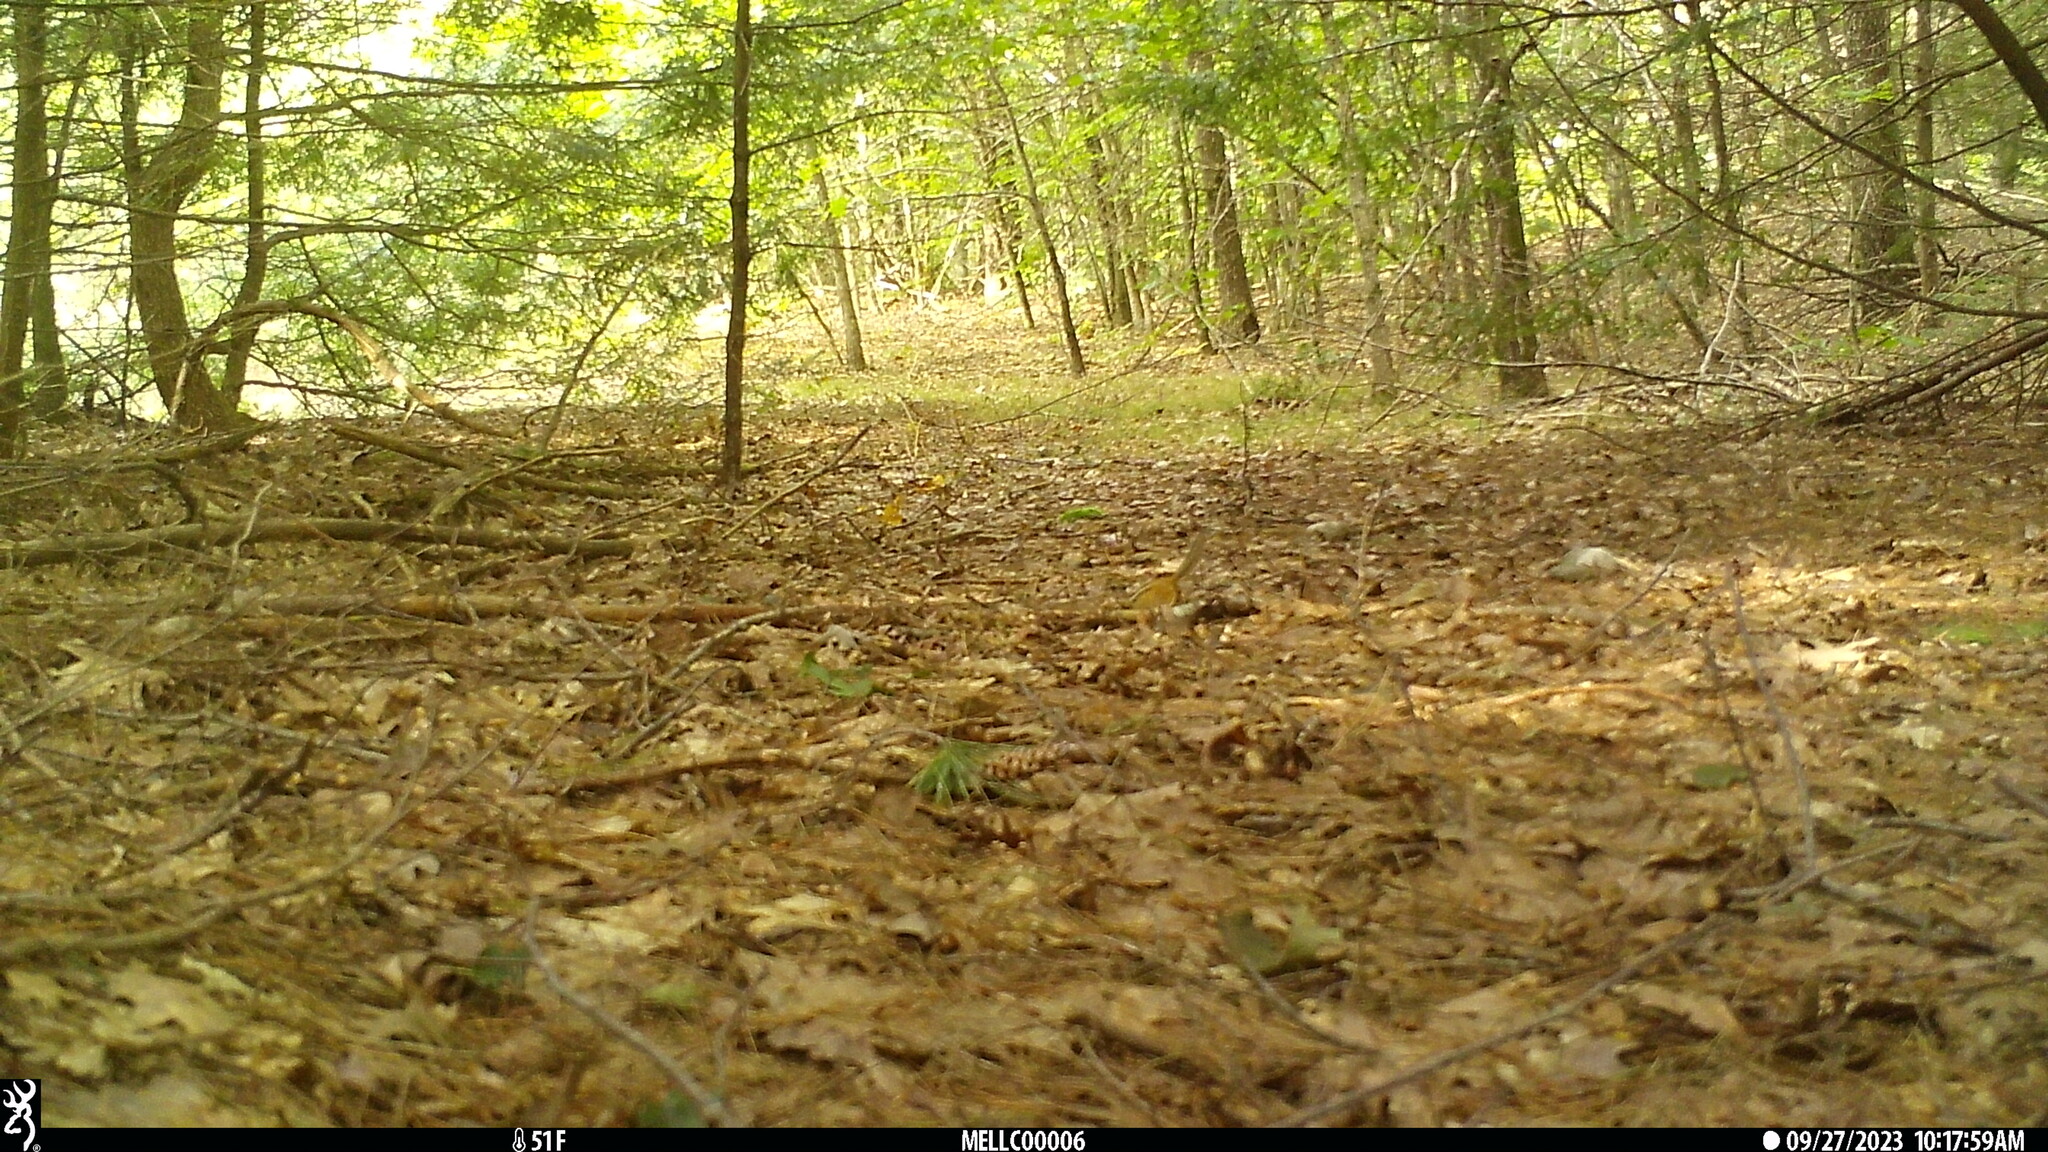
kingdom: Animalia
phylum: Chordata
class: Mammalia
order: Rodentia
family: Sciuridae
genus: Tamias
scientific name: Tamias striatus
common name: Eastern chipmunk
